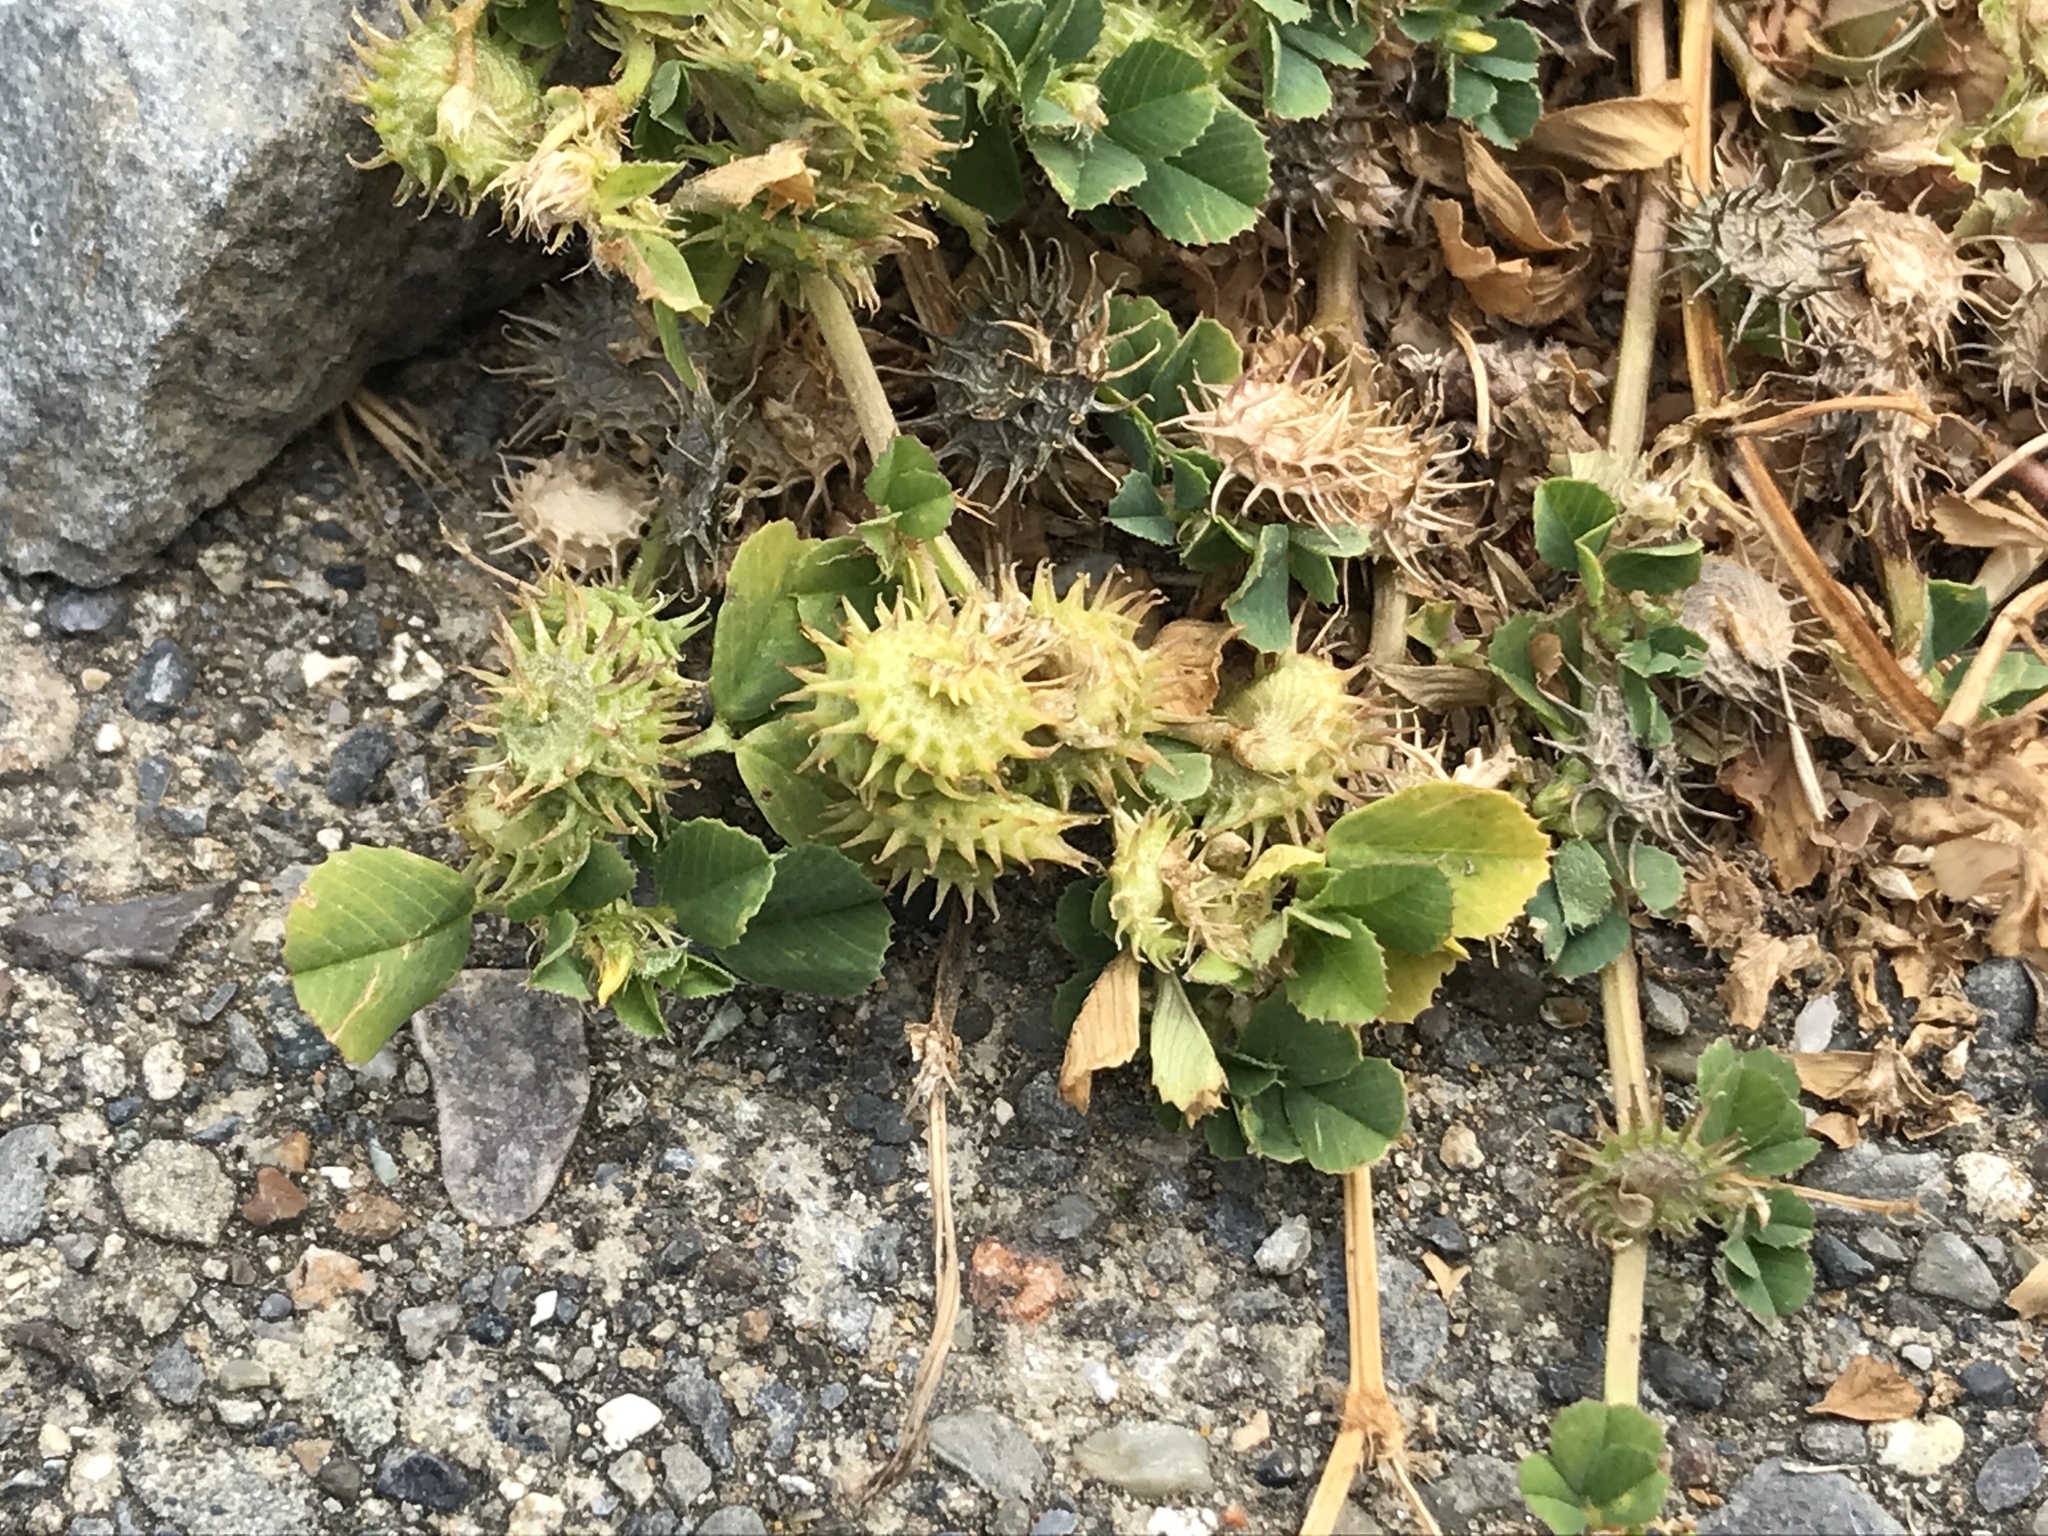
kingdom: Plantae
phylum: Tracheophyta
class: Magnoliopsida
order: Fabales
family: Fabaceae
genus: Medicago
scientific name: Medicago polymorpha
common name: Burclover
